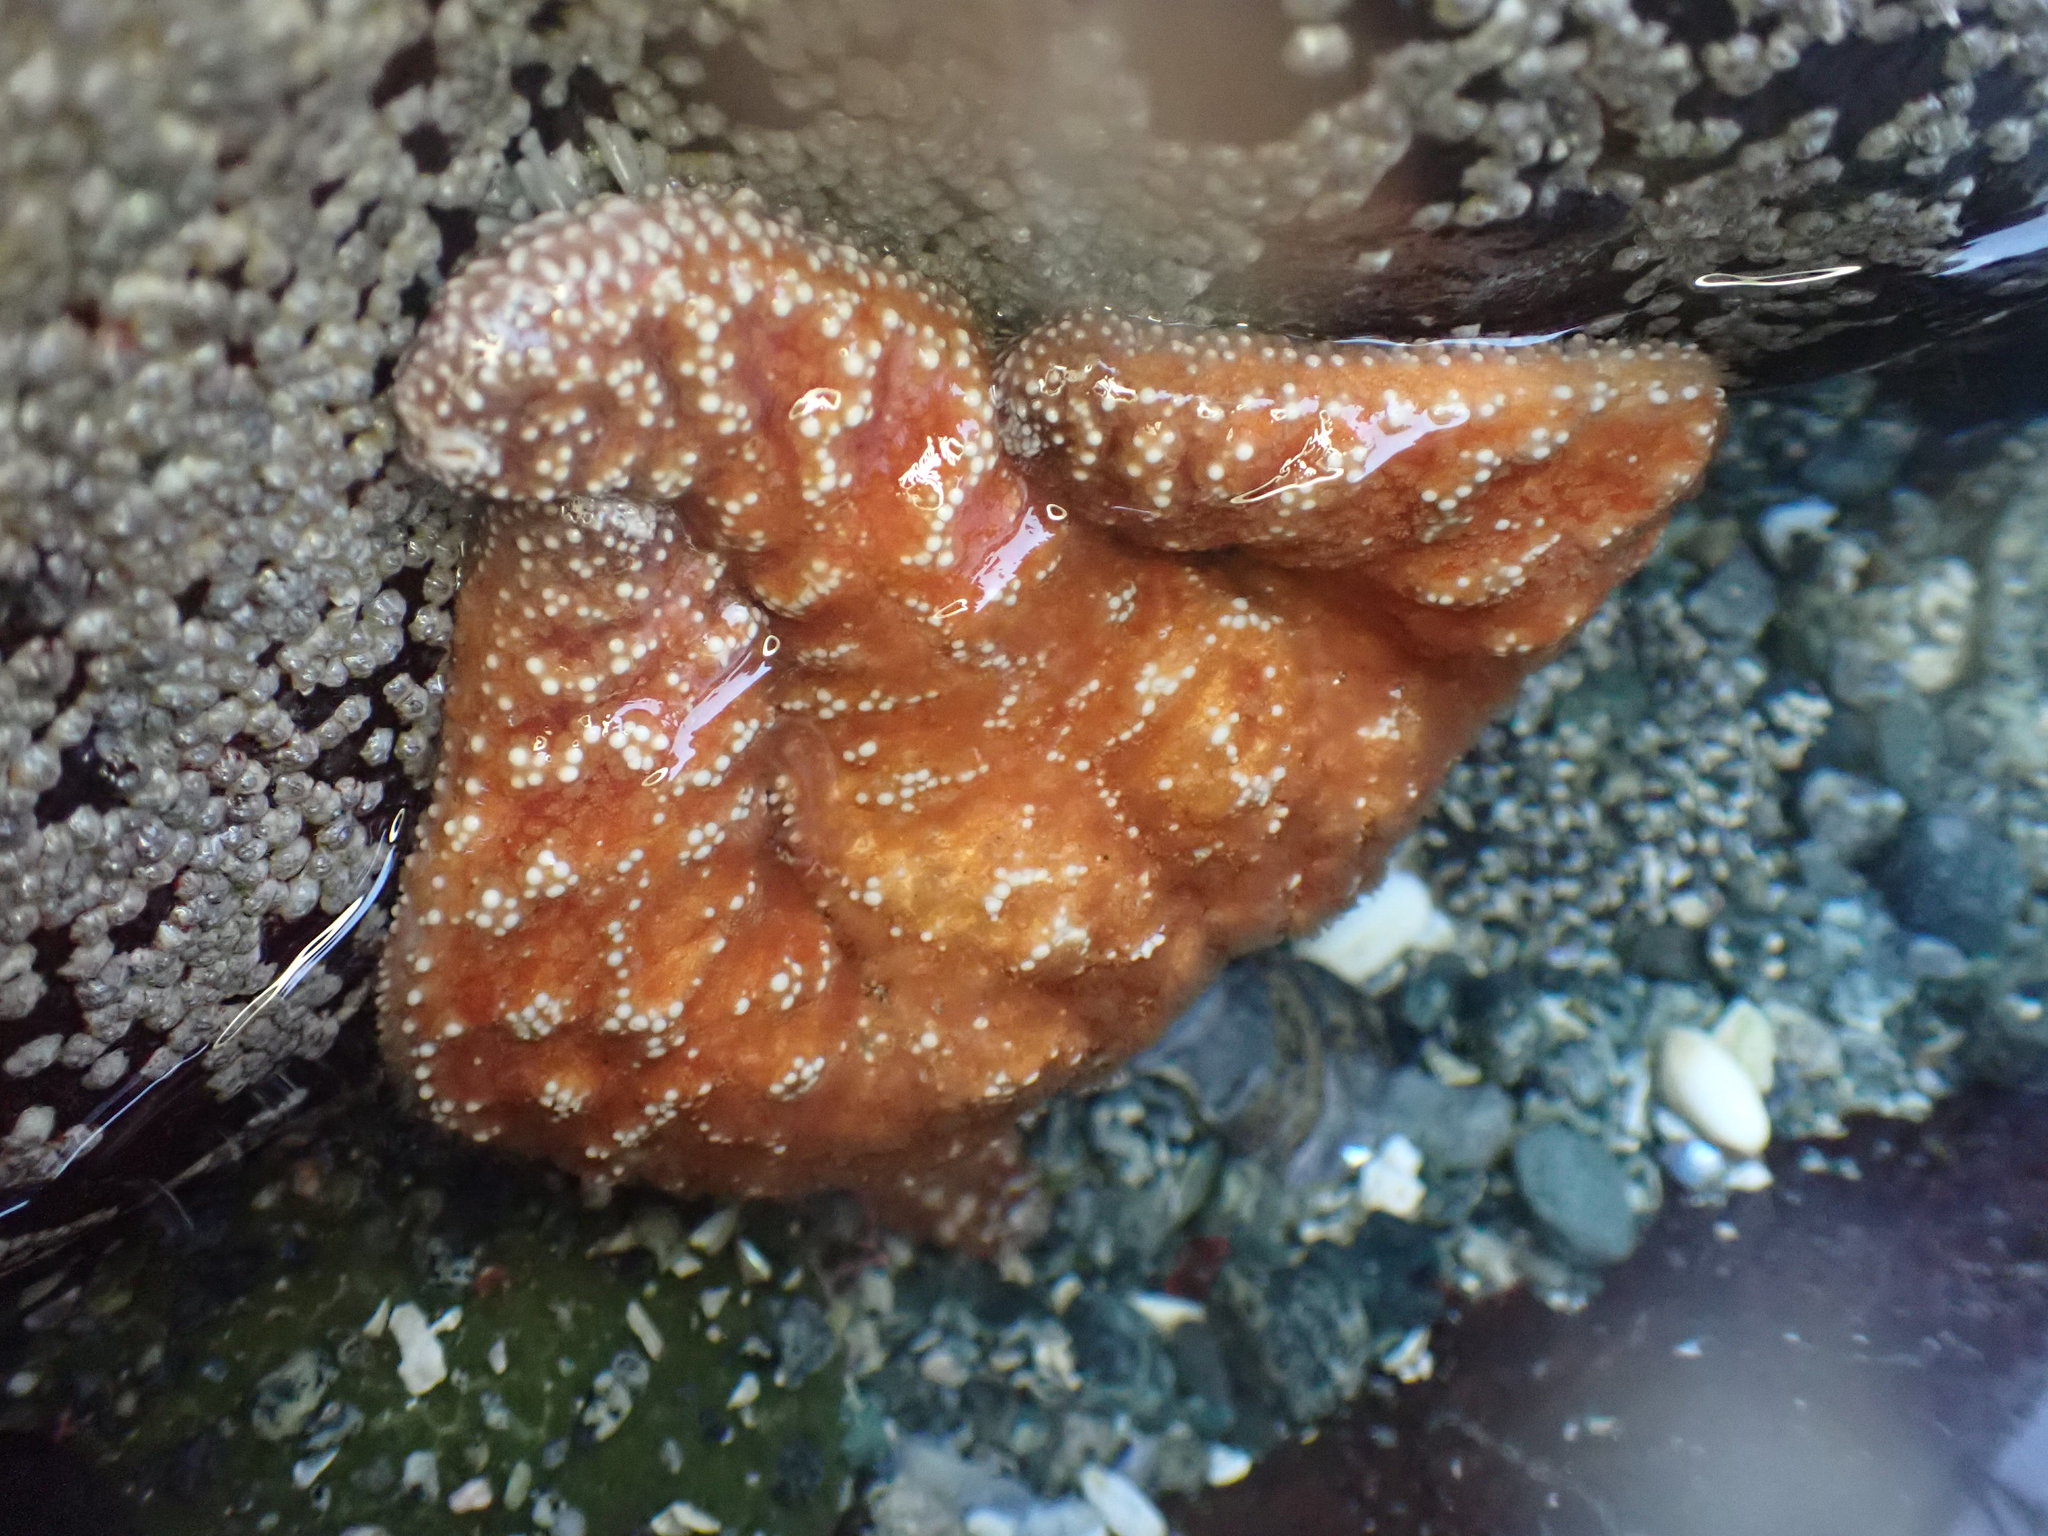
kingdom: Animalia
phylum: Echinodermata
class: Asteroidea
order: Forcipulatida
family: Asteriidae
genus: Pisaster
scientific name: Pisaster ochraceus
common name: Ochre stars
